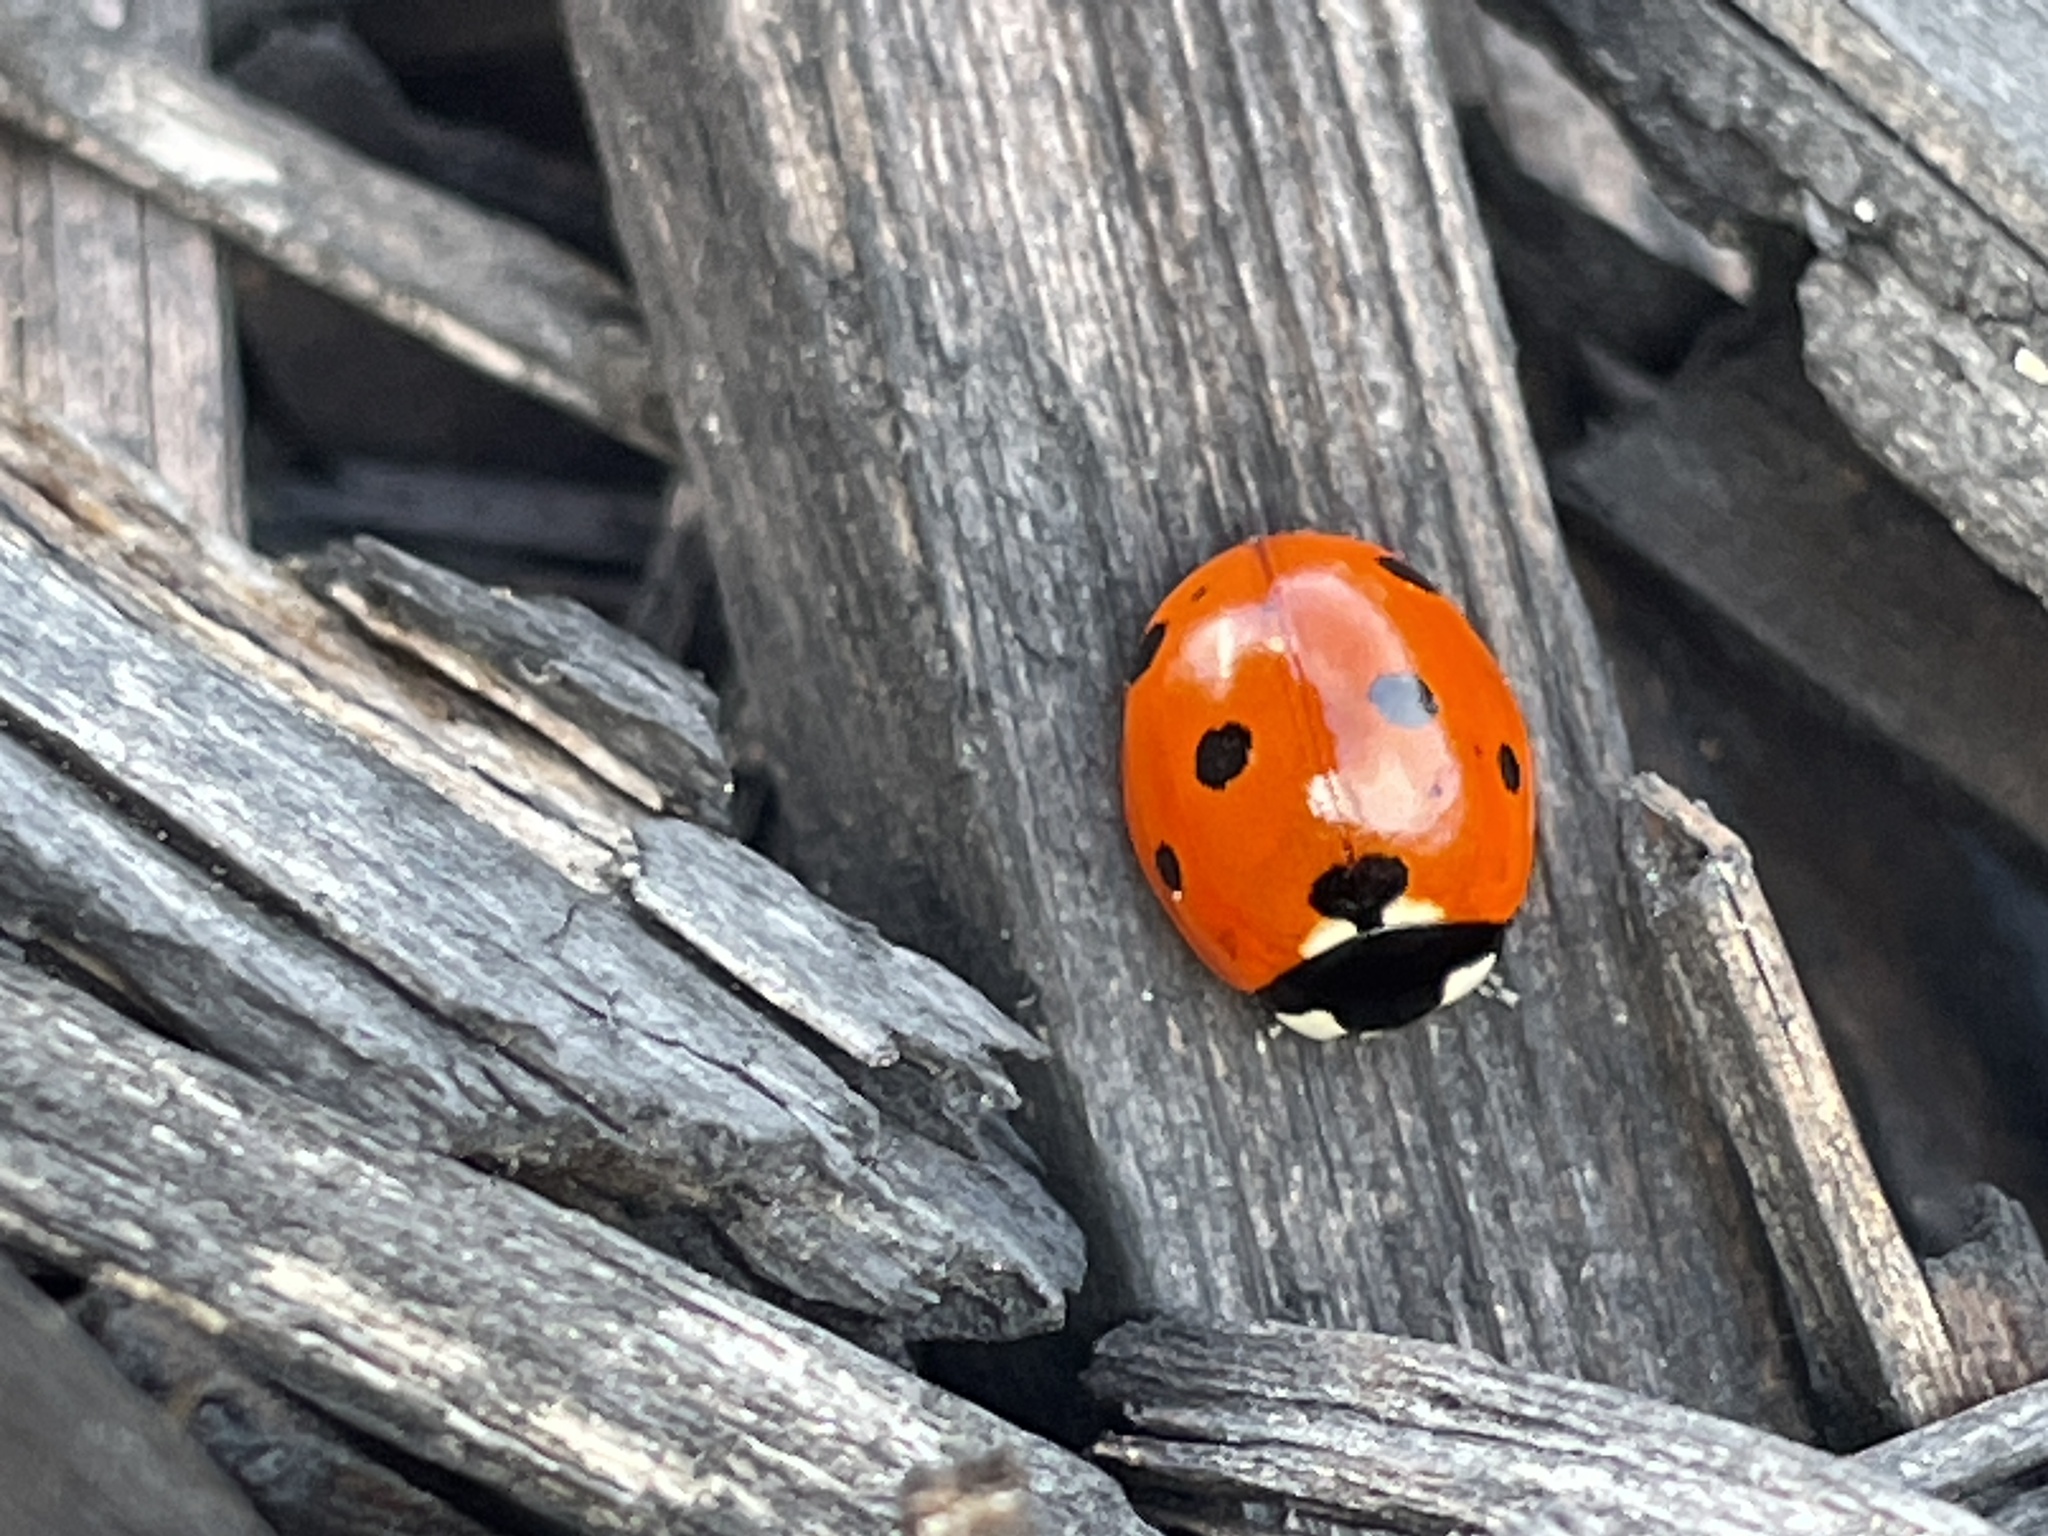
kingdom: Animalia
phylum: Arthropoda
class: Insecta
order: Coleoptera
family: Coccinellidae
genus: Coccinella
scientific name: Coccinella septempunctata
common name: Sevenspotted lady beetle
